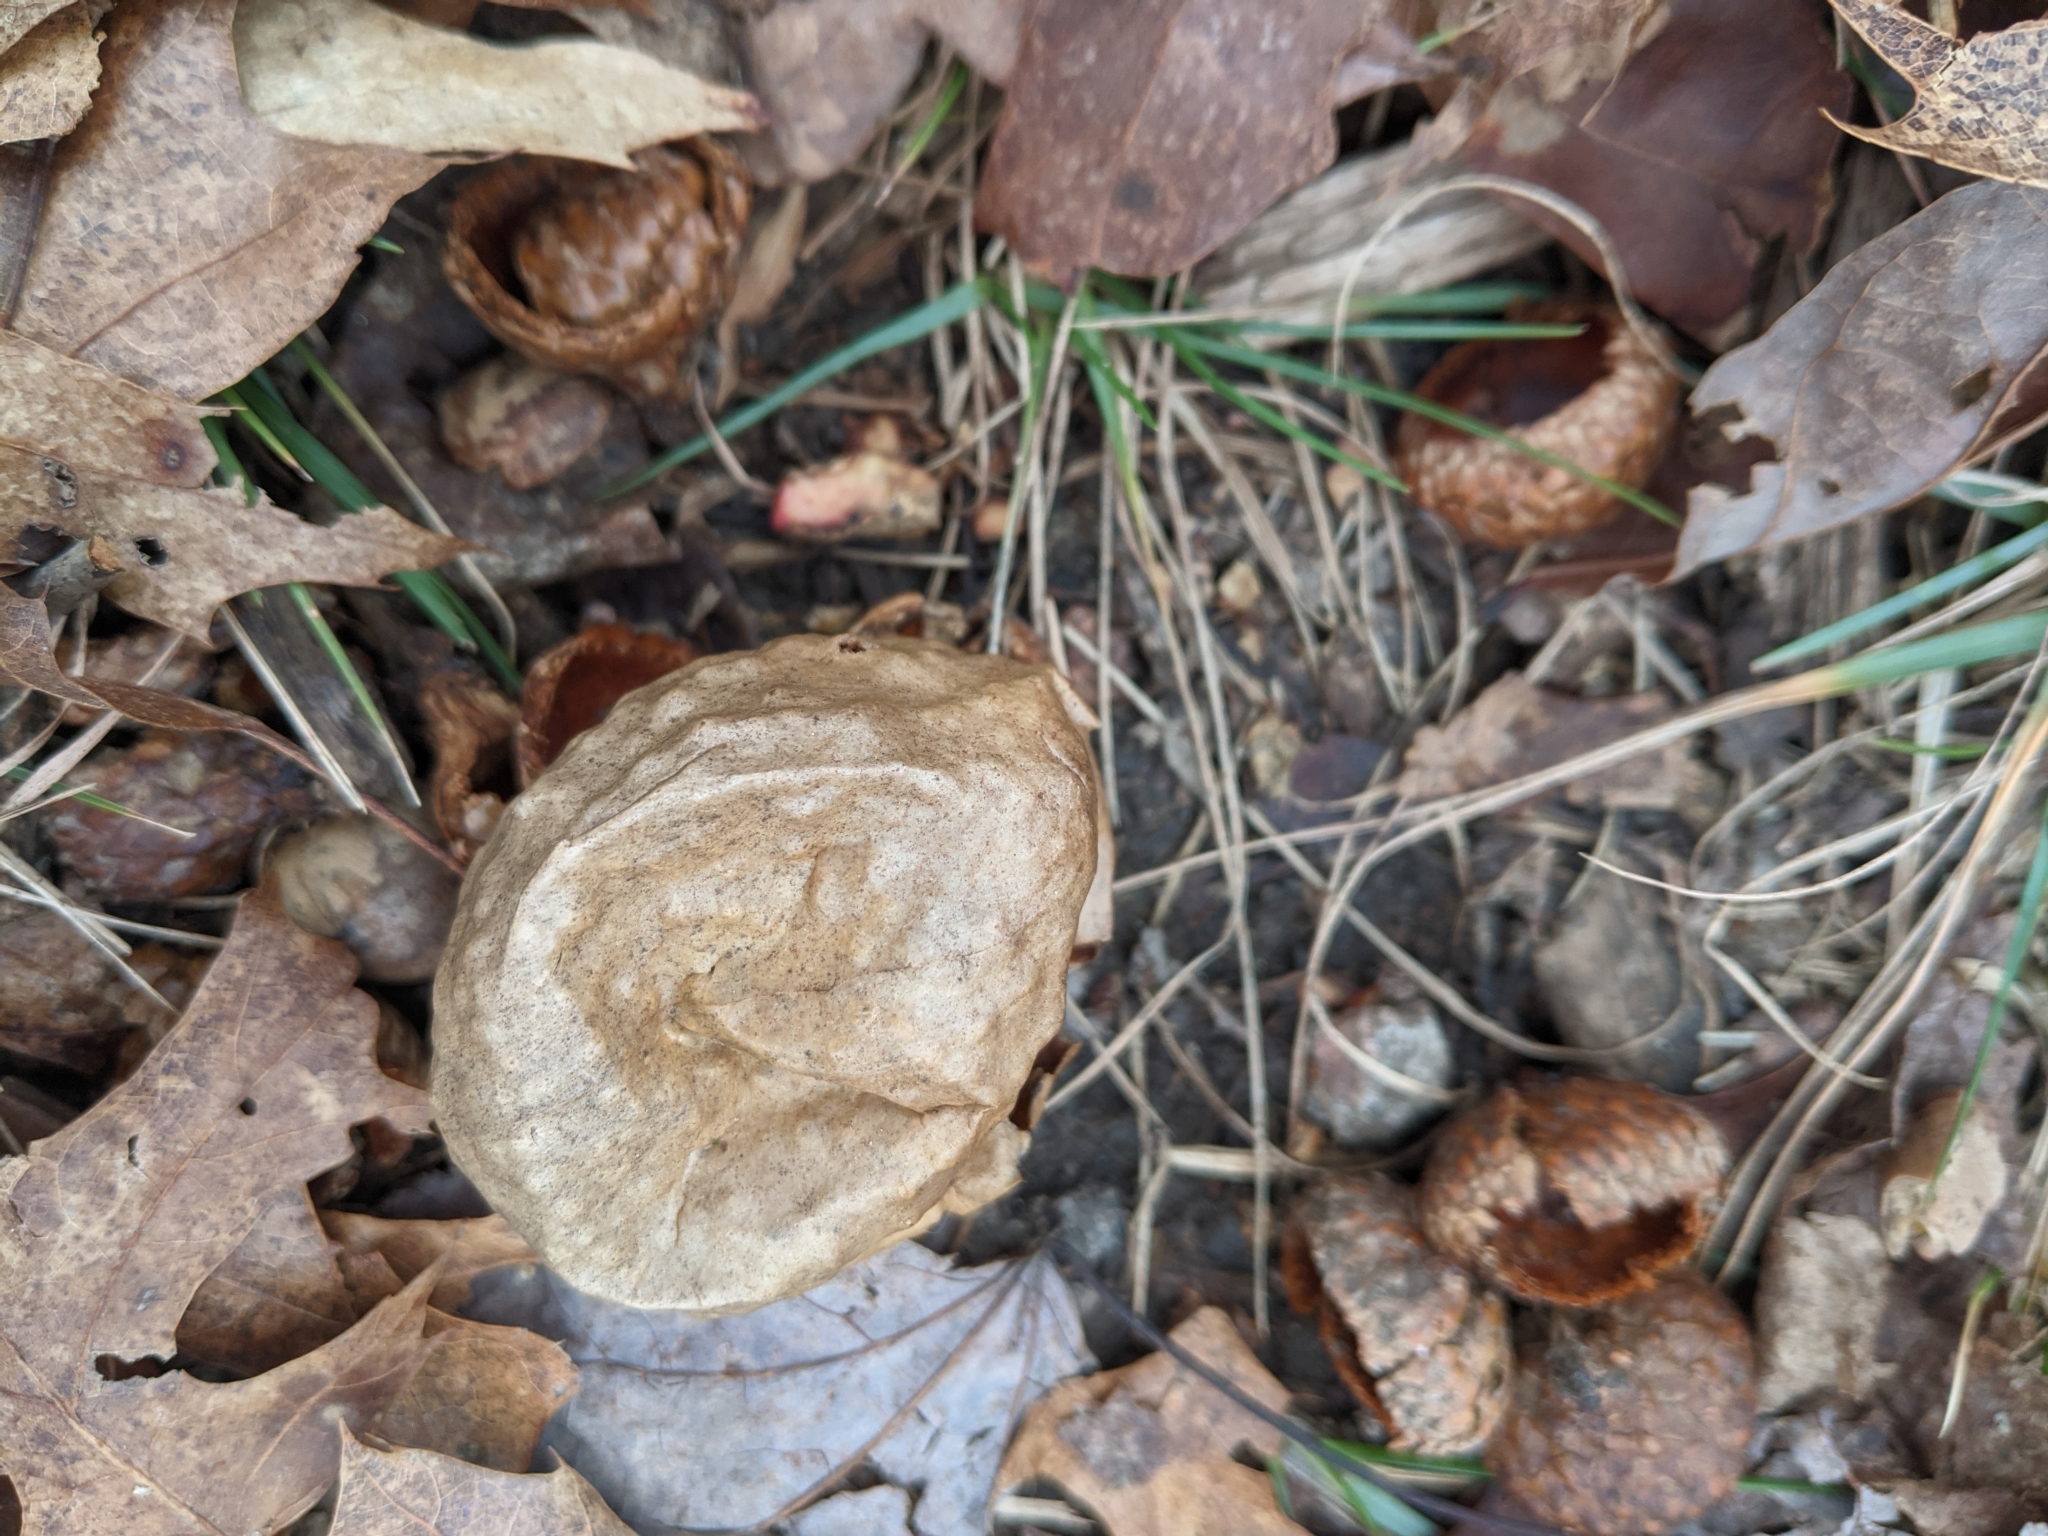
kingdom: Animalia
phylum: Arthropoda
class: Insecta
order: Hymenoptera
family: Cynipidae
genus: Amphibolips
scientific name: Amphibolips
